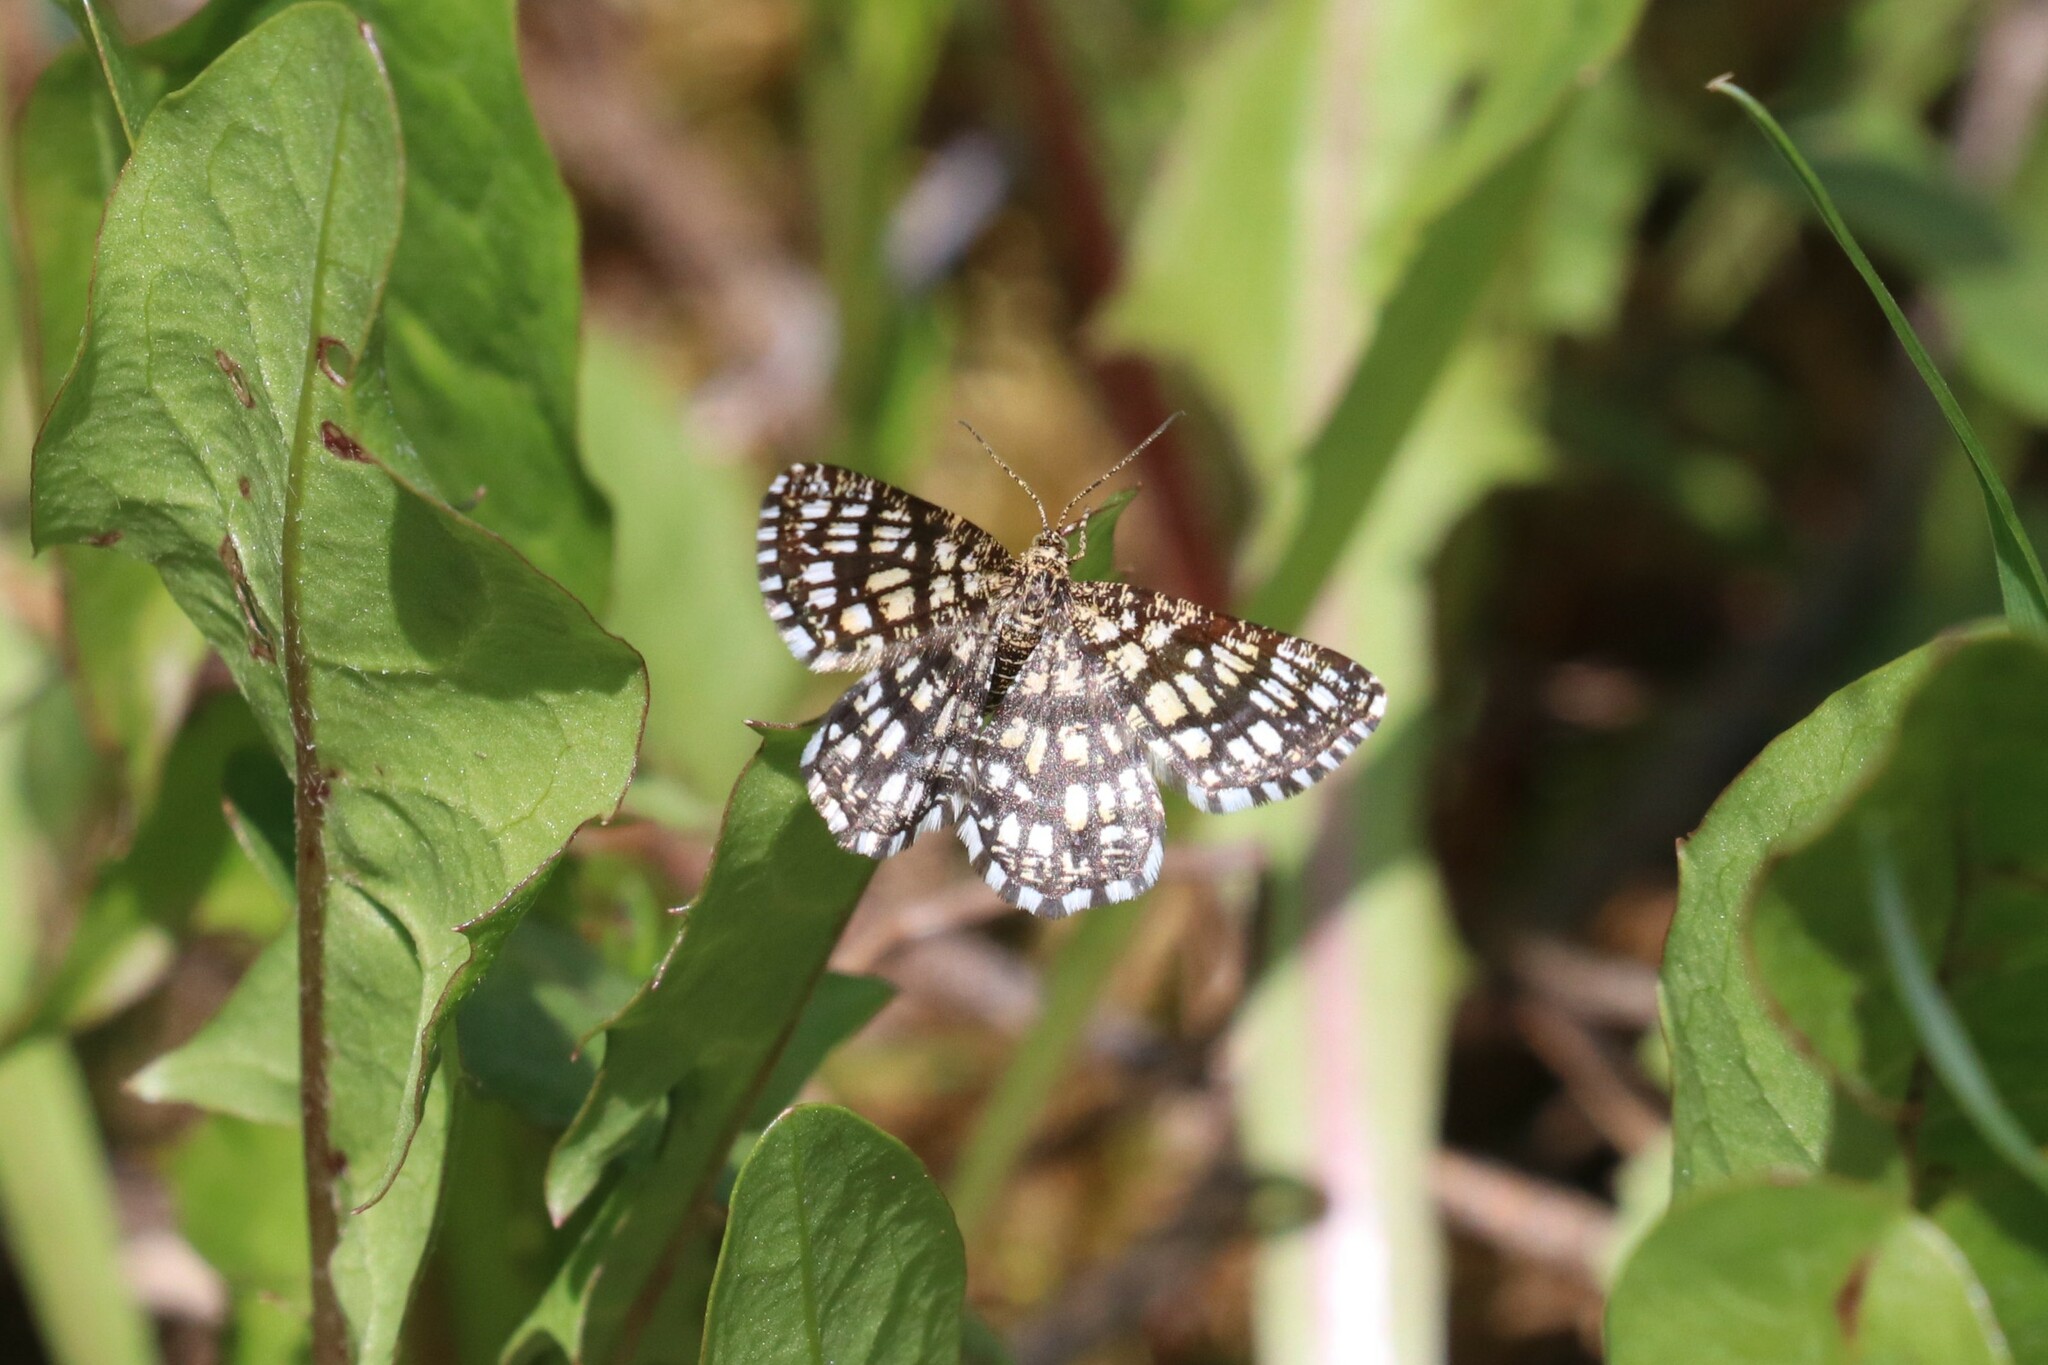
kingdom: Animalia
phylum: Arthropoda
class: Insecta
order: Lepidoptera
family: Geometridae
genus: Chiasmia
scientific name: Chiasmia clathrata
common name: Latticed heath
